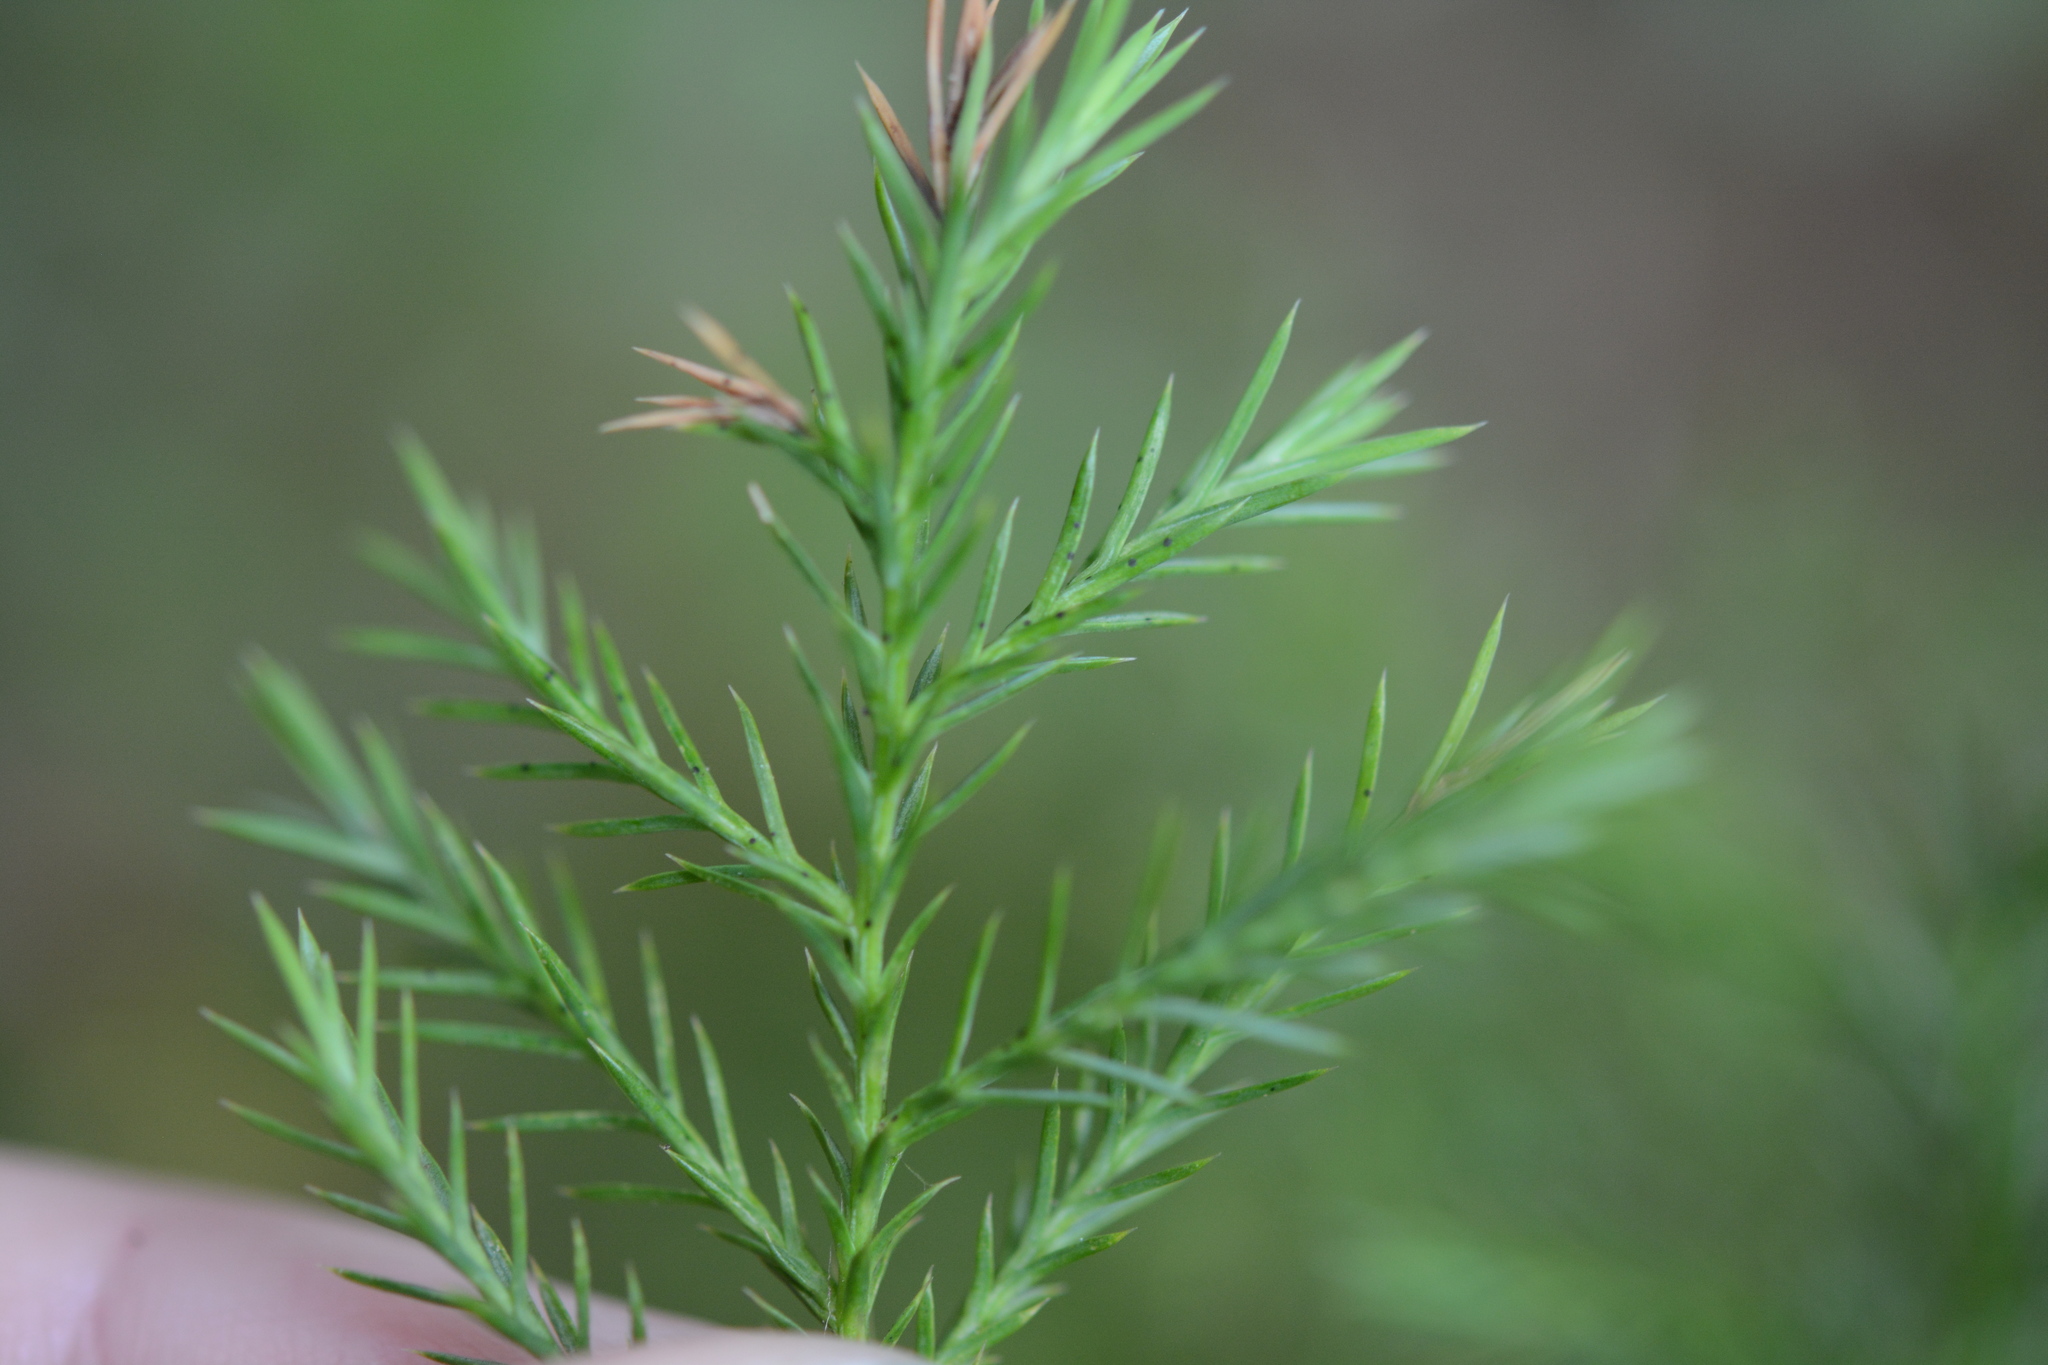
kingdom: Plantae
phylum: Tracheophyta
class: Pinopsida
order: Pinales
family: Cupressaceae
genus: Juniperus
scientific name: Juniperus virginiana
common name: Red juniper
